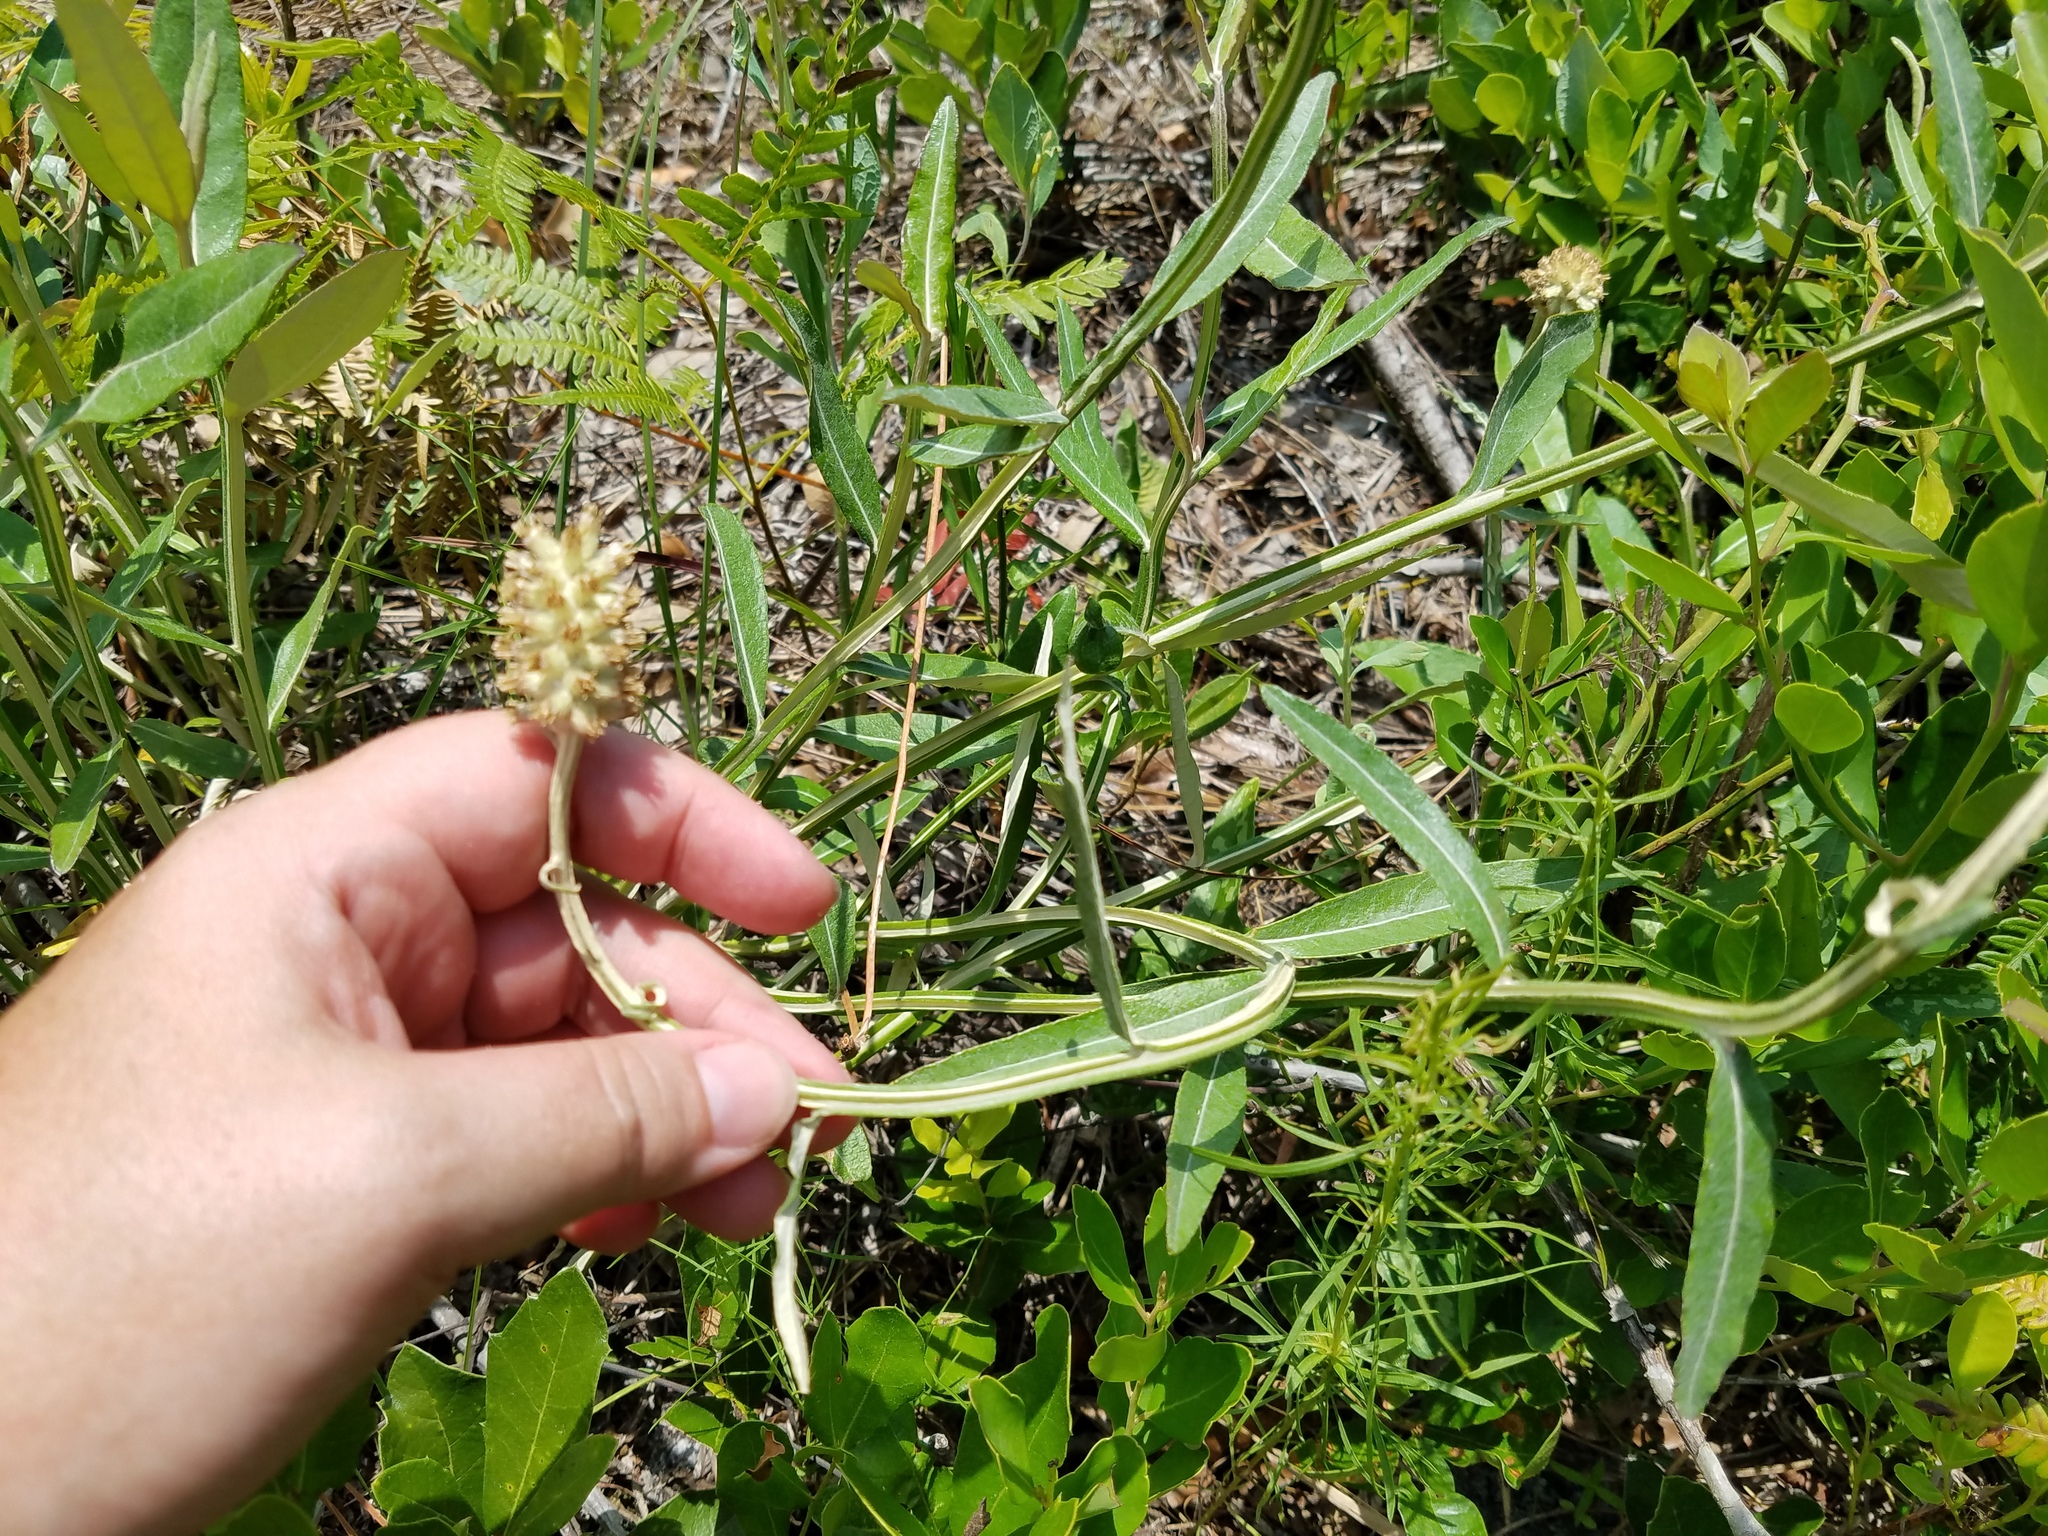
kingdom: Plantae
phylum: Tracheophyta
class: Magnoliopsida
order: Asterales
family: Asteraceae
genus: Pterocaulon
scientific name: Pterocaulon pycnostachyum
